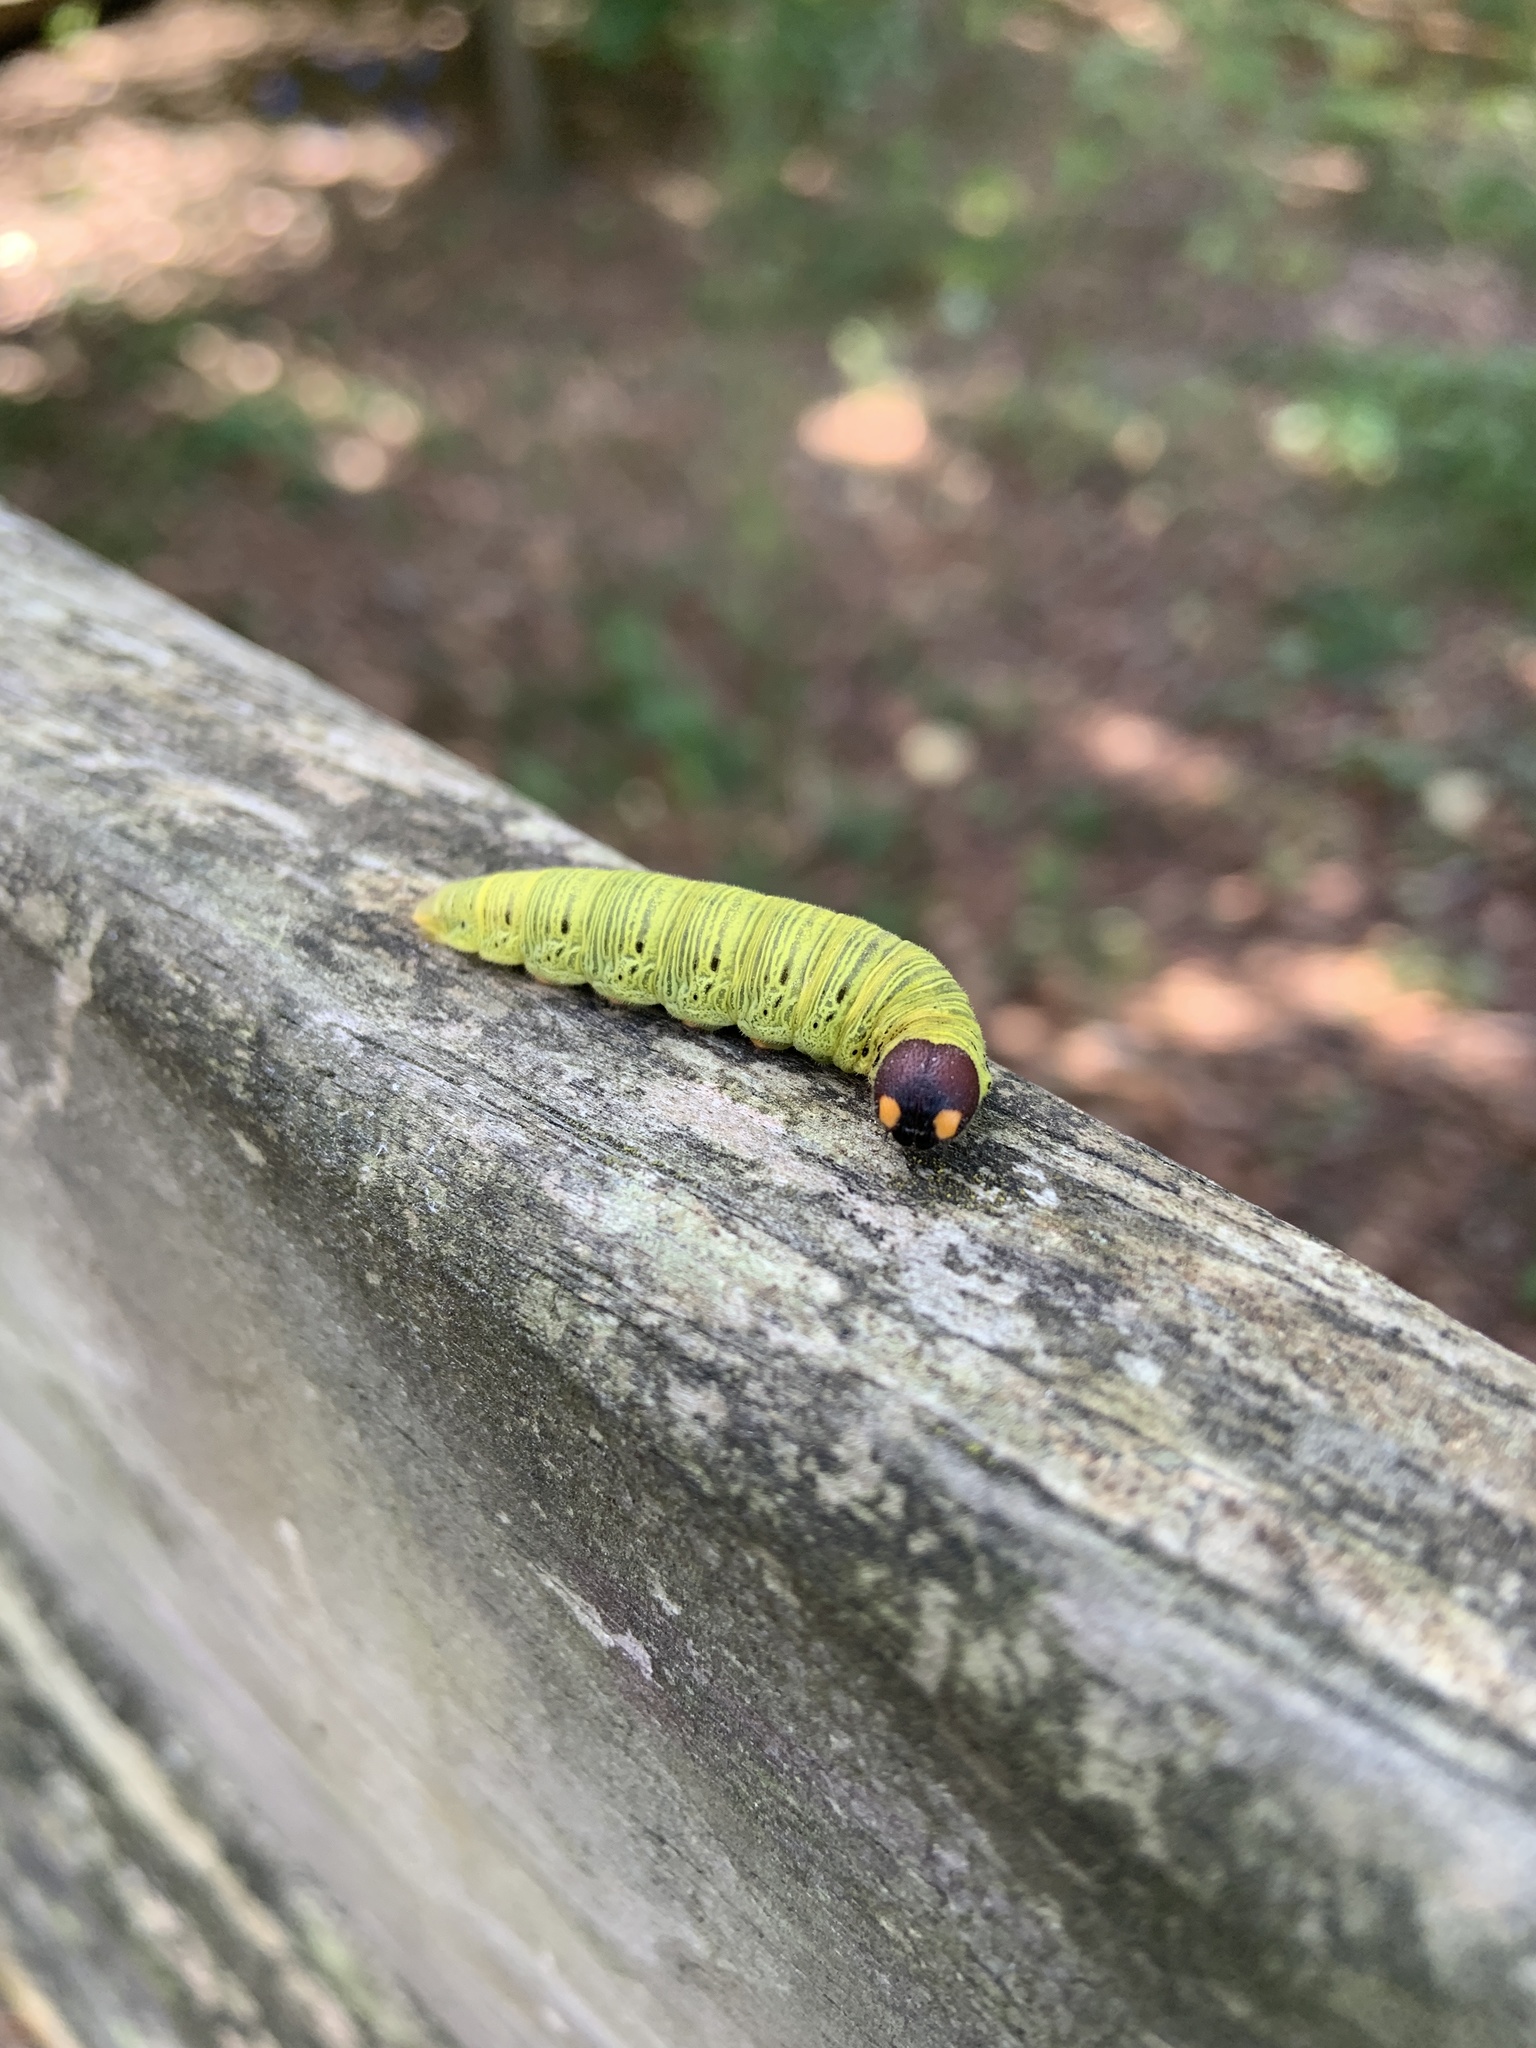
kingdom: Animalia
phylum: Arthropoda
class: Insecta
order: Lepidoptera
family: Hesperiidae
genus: Epargyreus
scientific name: Epargyreus clarus
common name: Silver-spotted skipper
